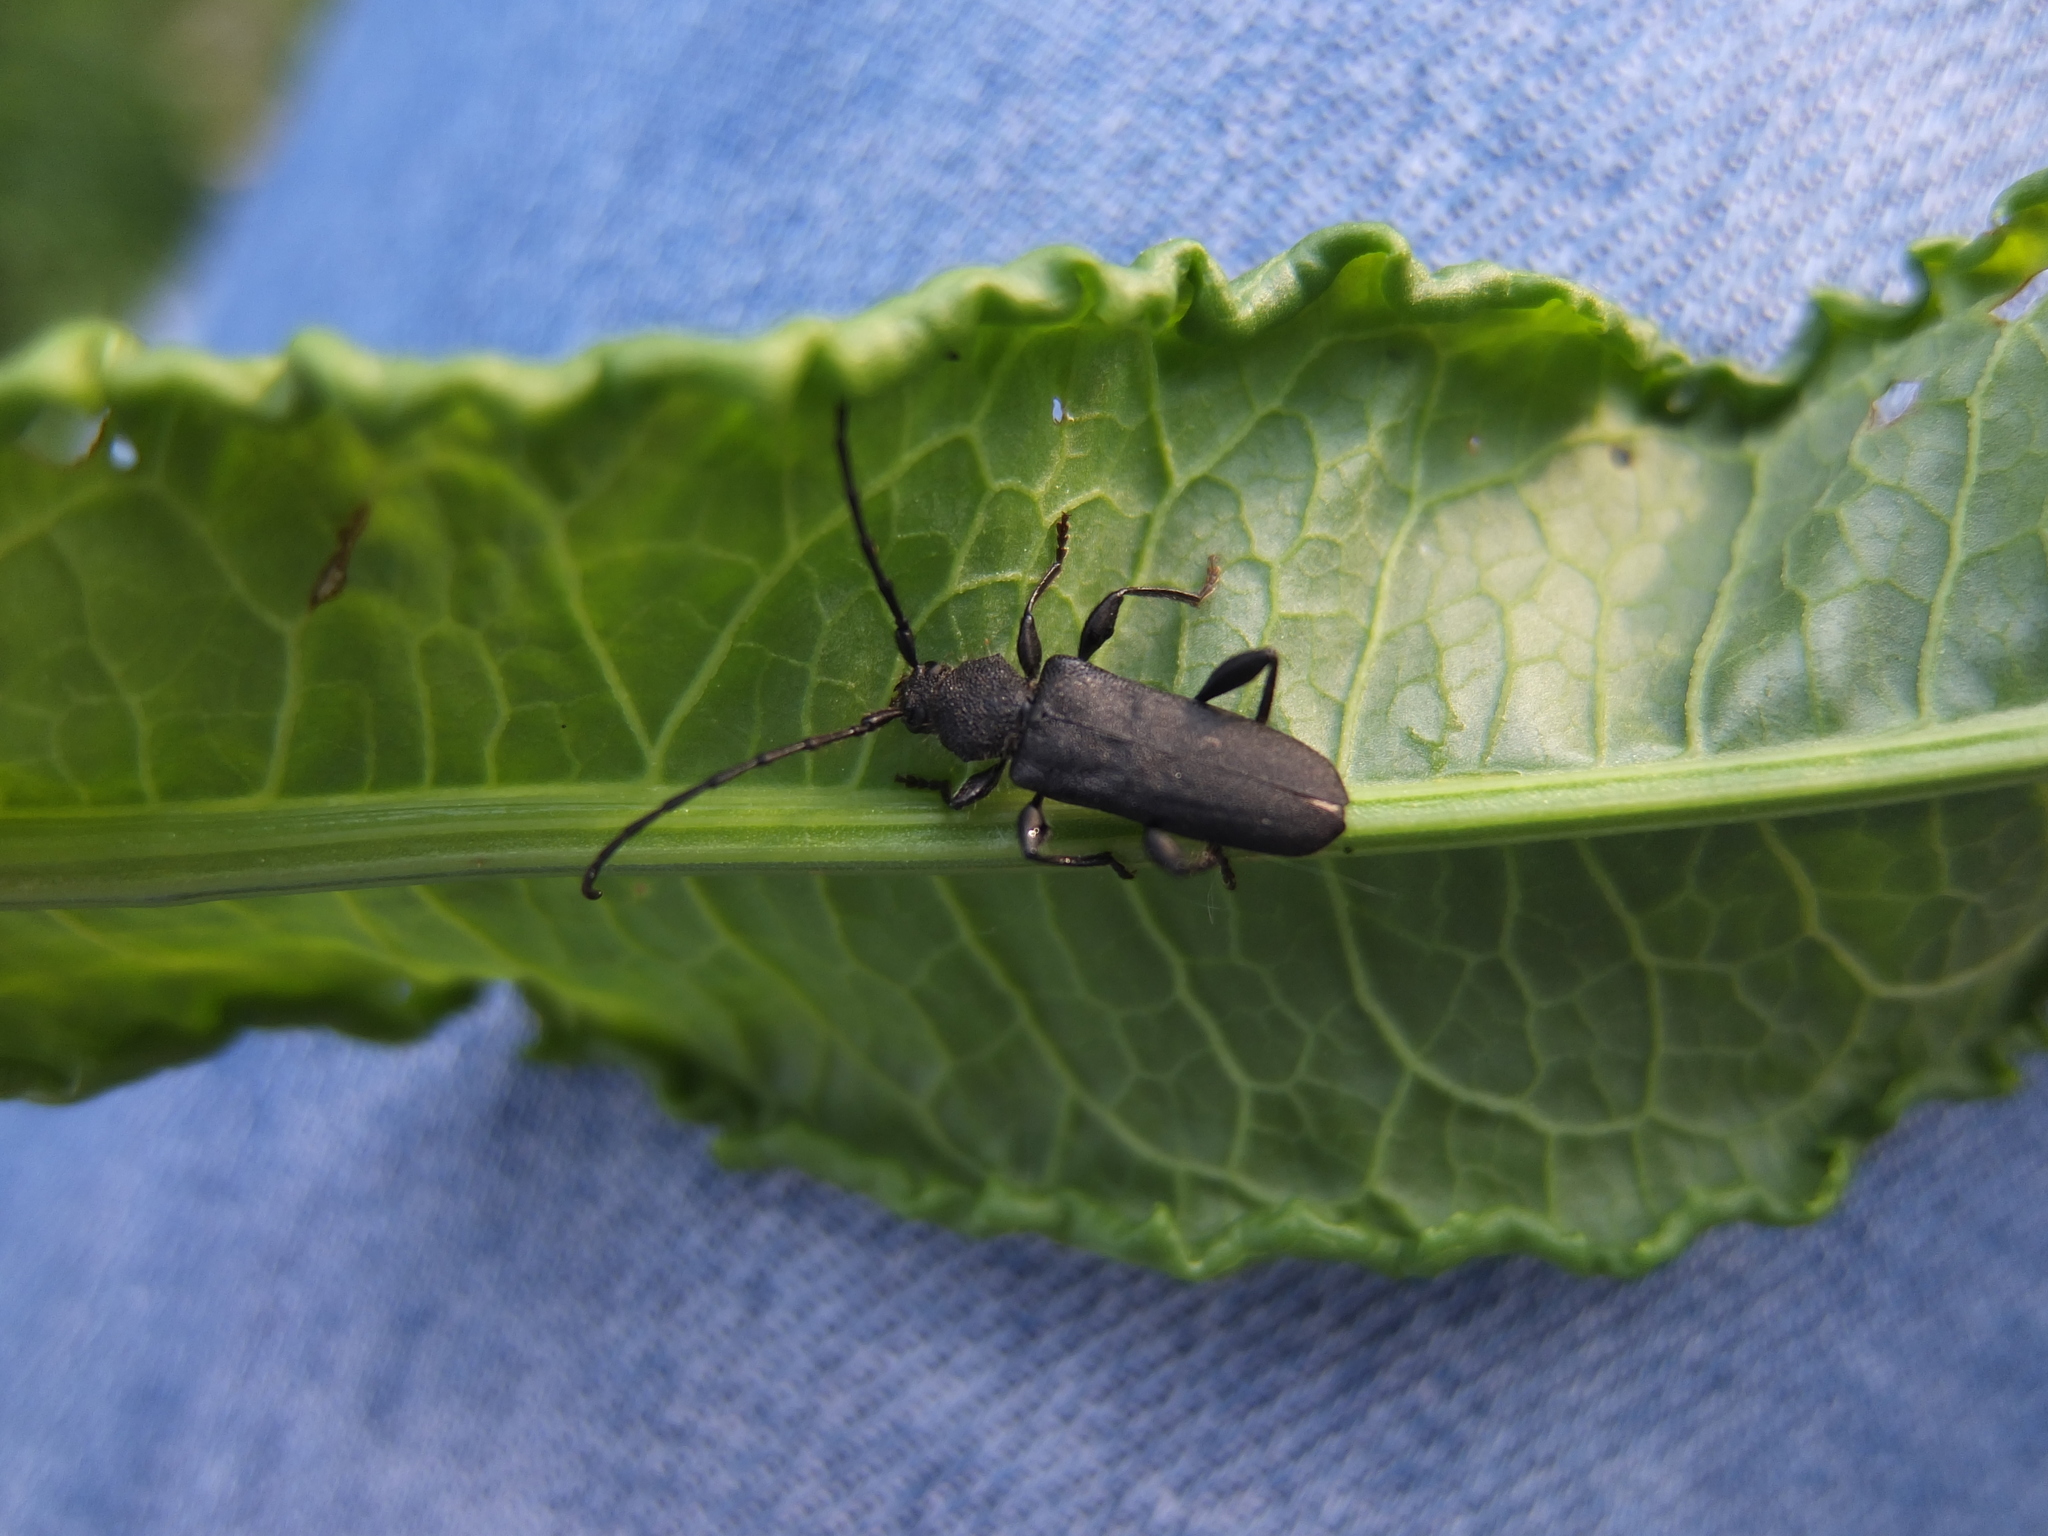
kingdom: Animalia
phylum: Arthropoda
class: Insecta
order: Coleoptera
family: Cerambycidae
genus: Ropalopus
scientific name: Ropalopus macropus
